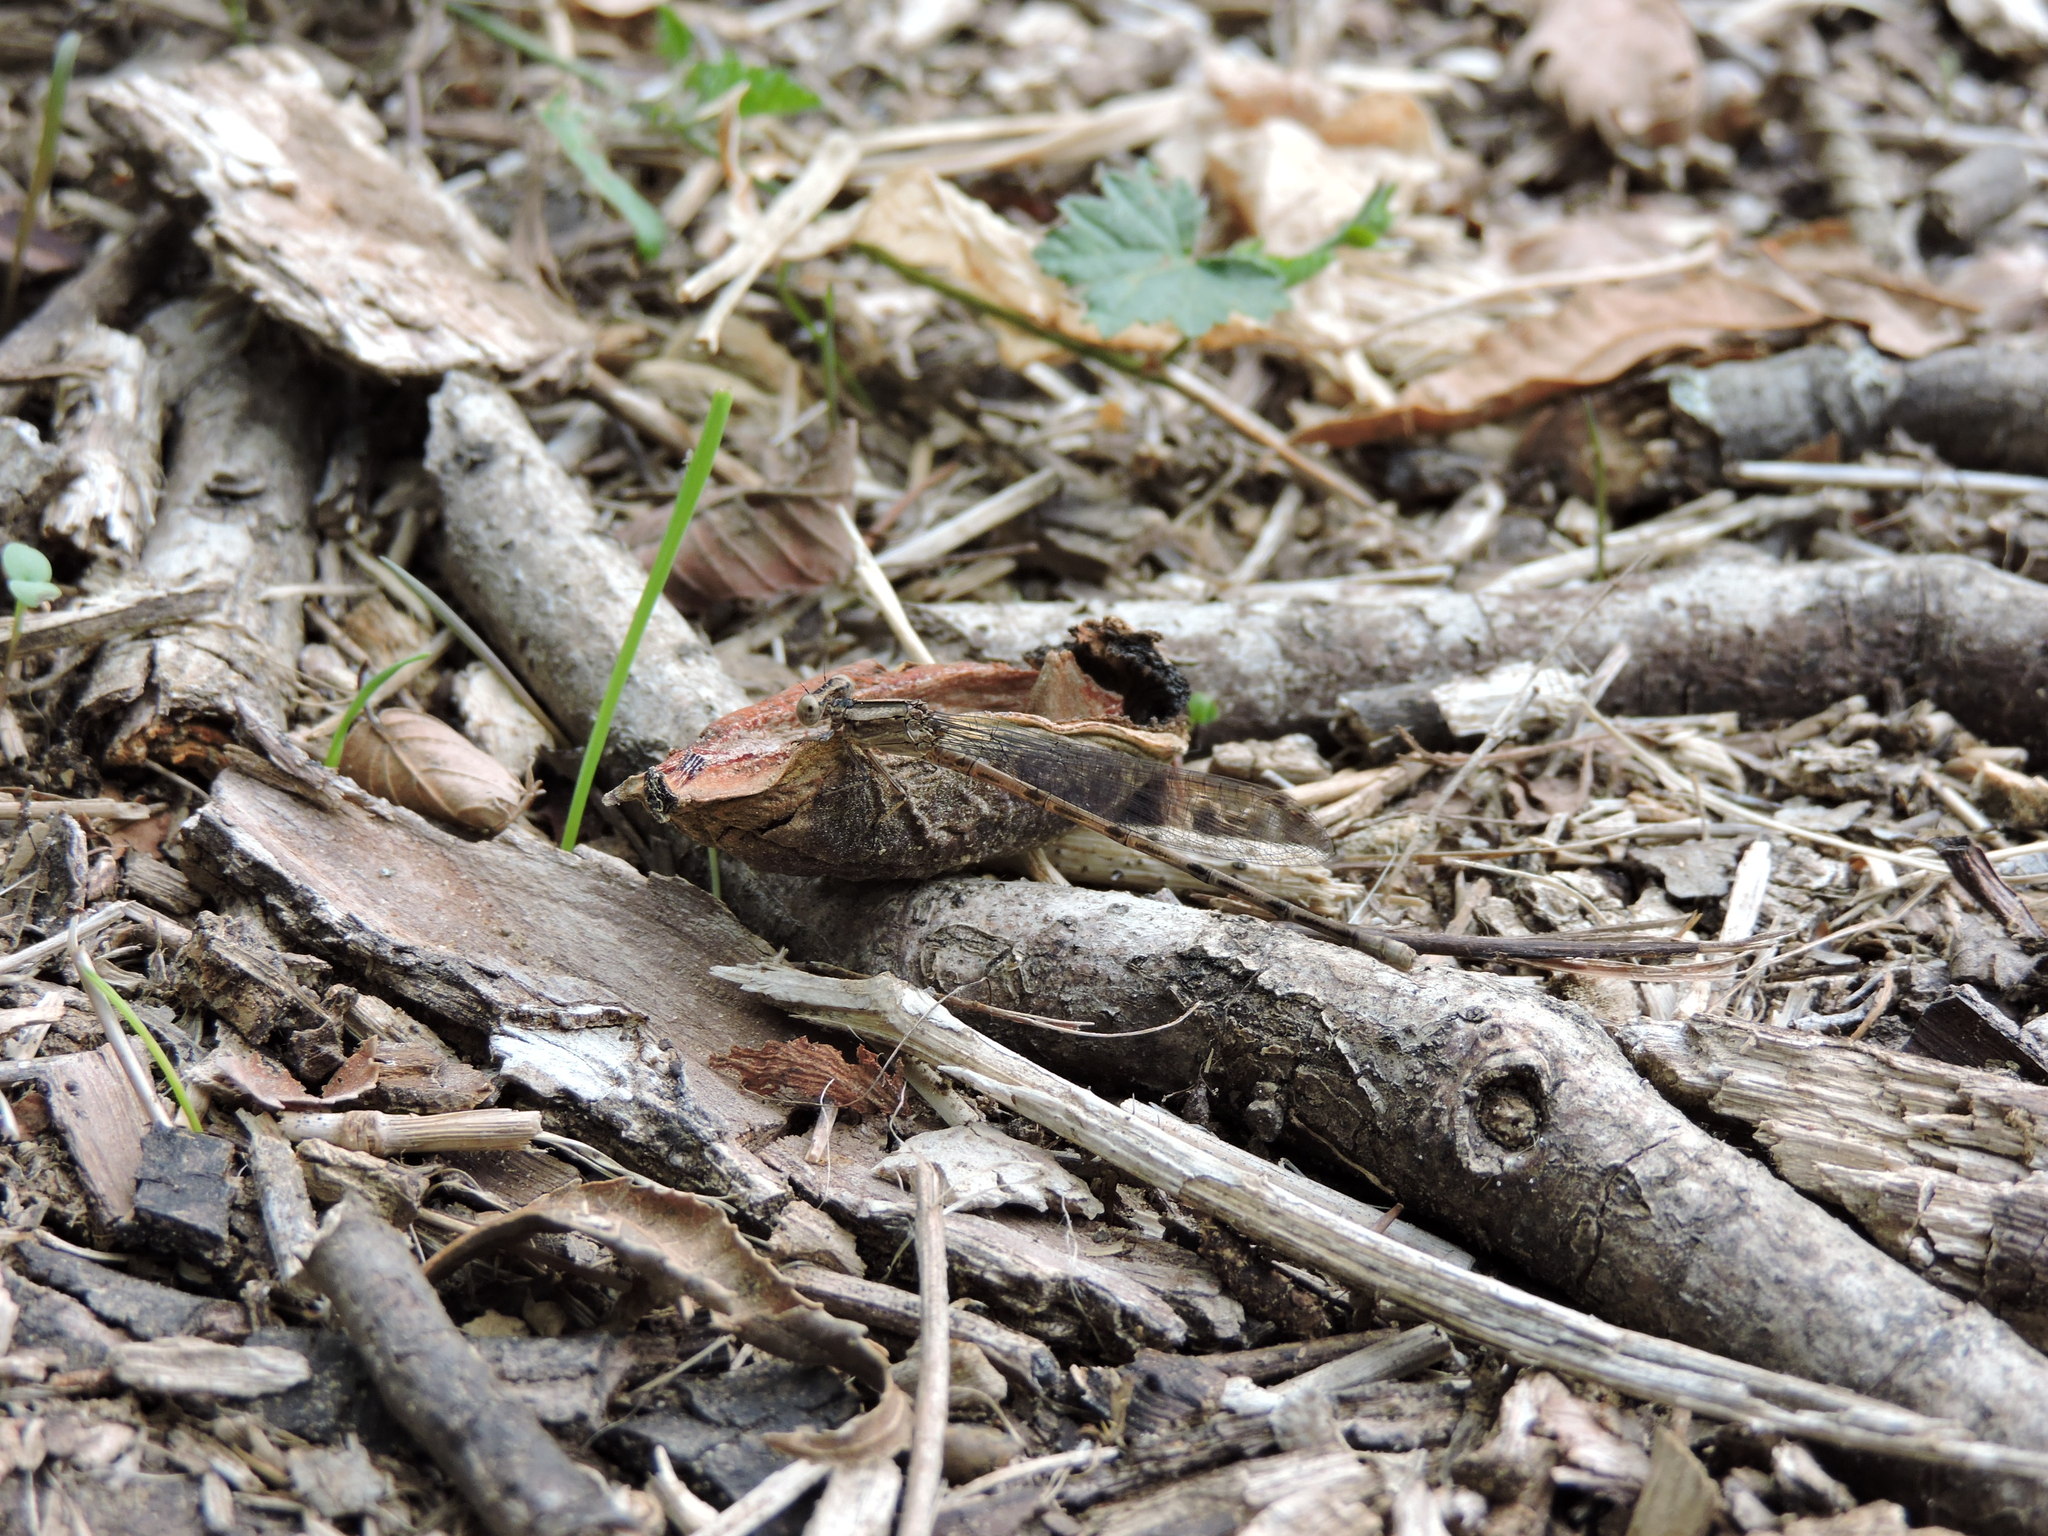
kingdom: Animalia
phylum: Arthropoda
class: Insecta
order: Odonata
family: Coenagrionidae
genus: Argia
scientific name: Argia immunda
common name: Kiowa dancer
